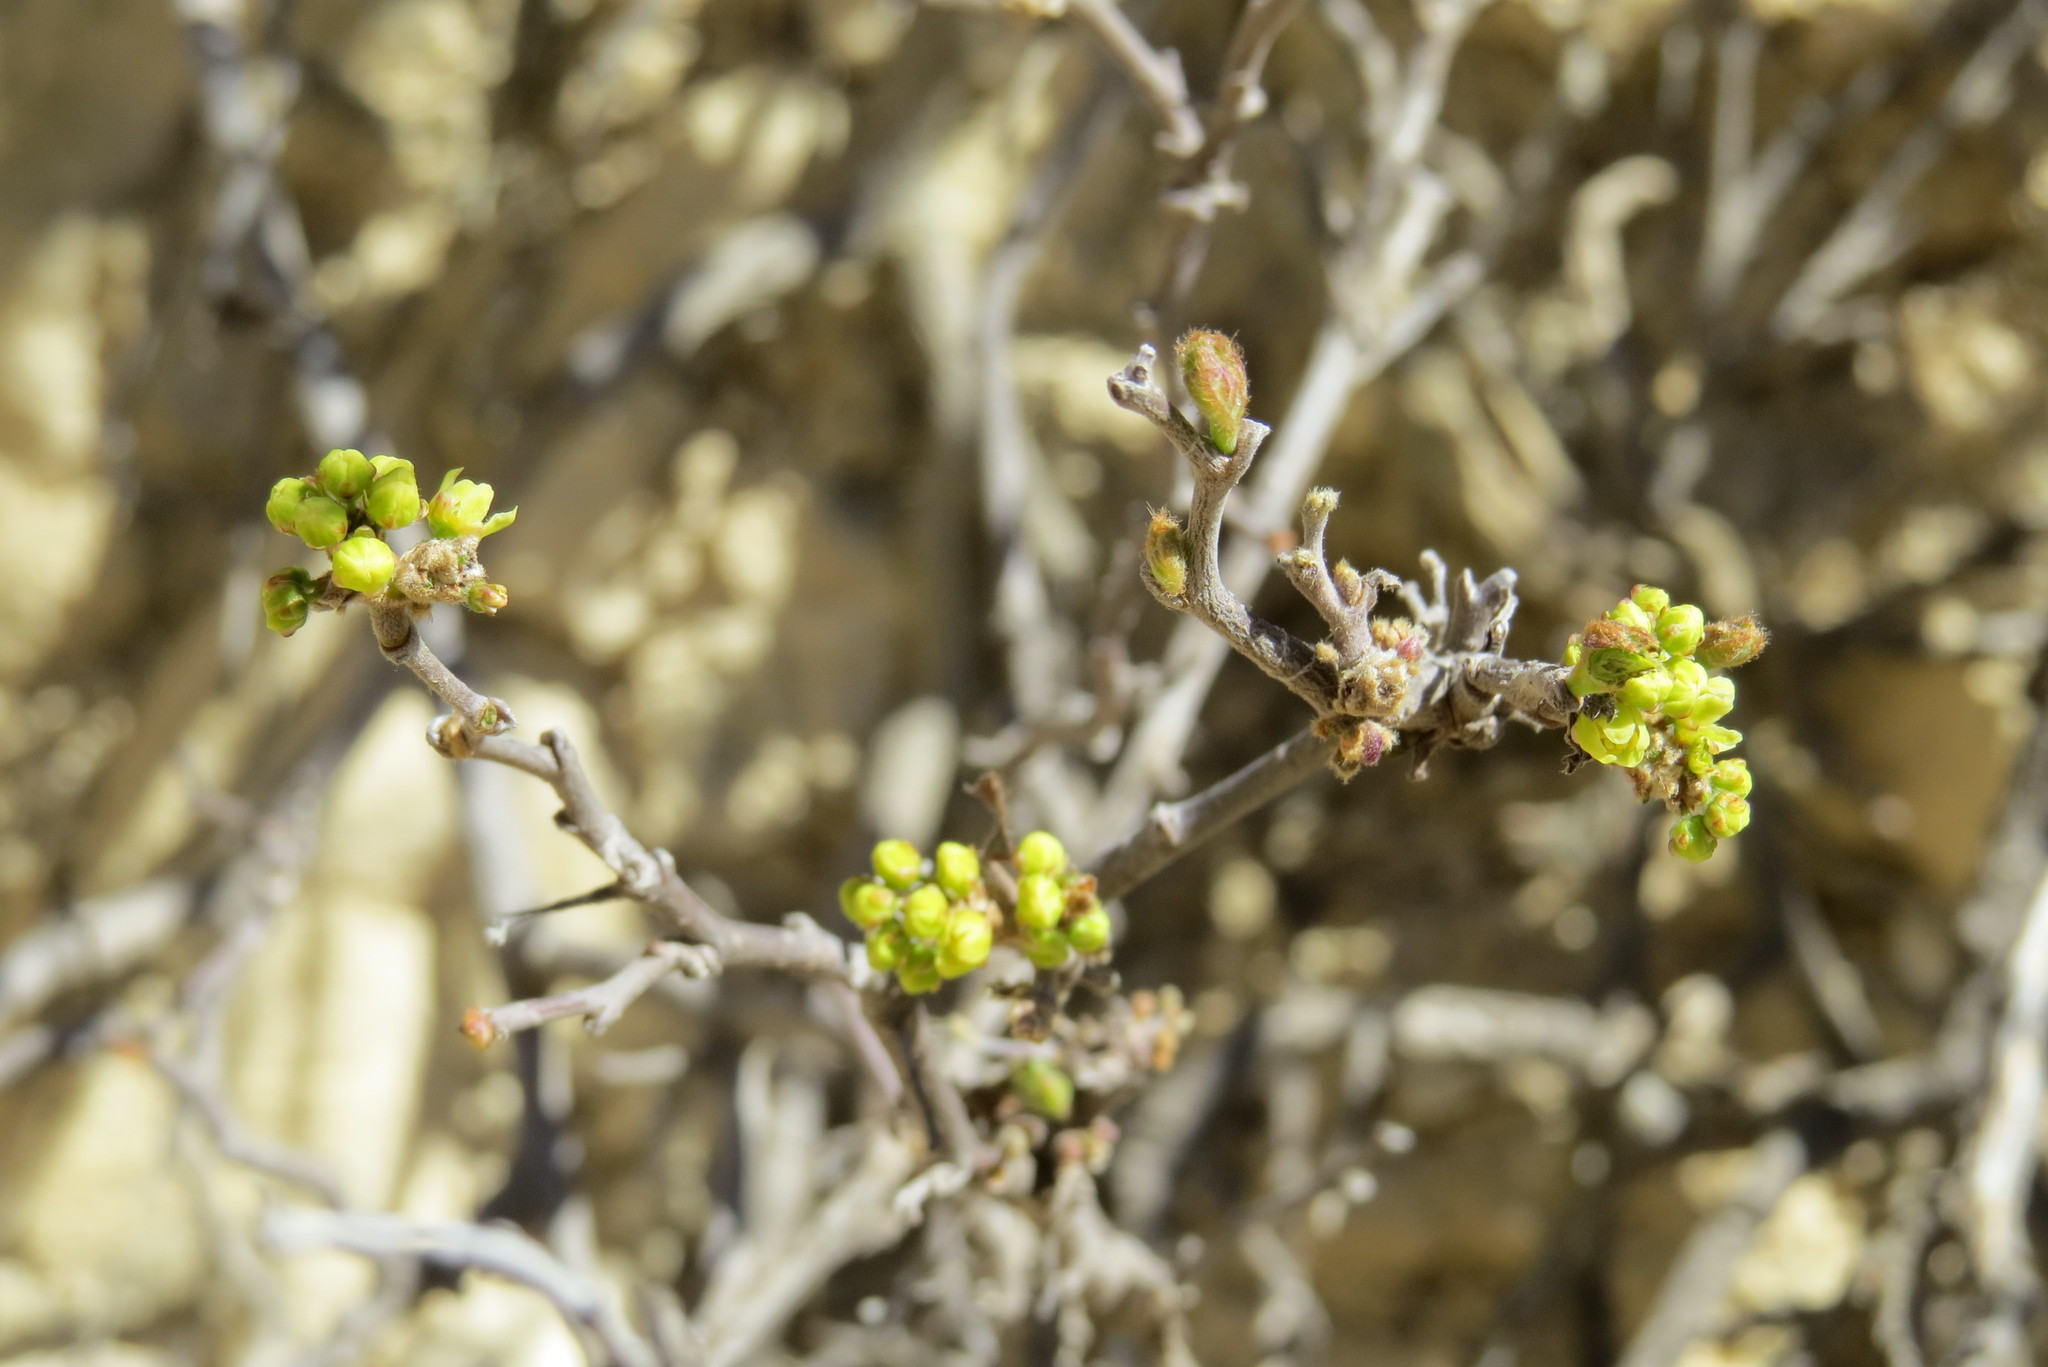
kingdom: Plantae
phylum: Tracheophyta
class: Magnoliopsida
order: Sapindales
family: Anacardiaceae
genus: Rhus
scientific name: Rhus aromatica
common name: Aromatic sumac
